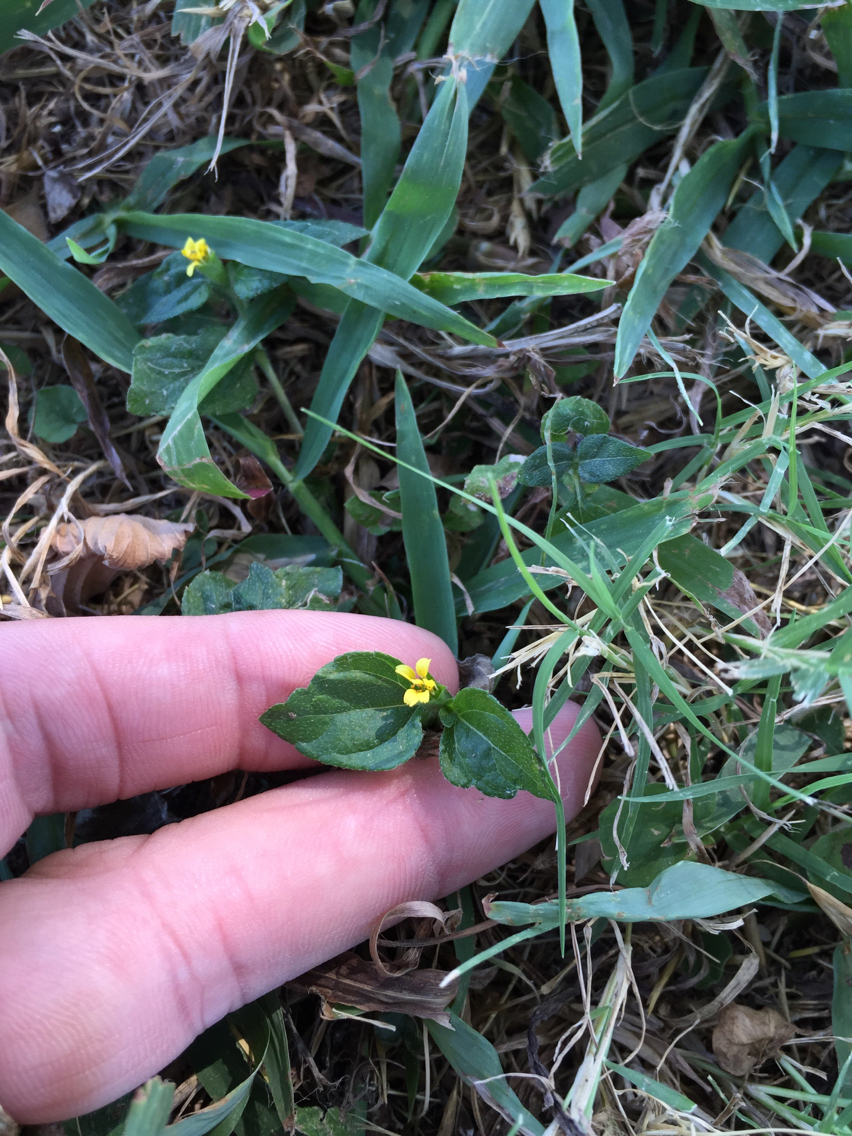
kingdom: Plantae
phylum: Tracheophyta
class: Magnoliopsida
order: Asterales
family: Asteraceae
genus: Calyptocarpus
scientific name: Calyptocarpus vialis
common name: Straggler daisy
